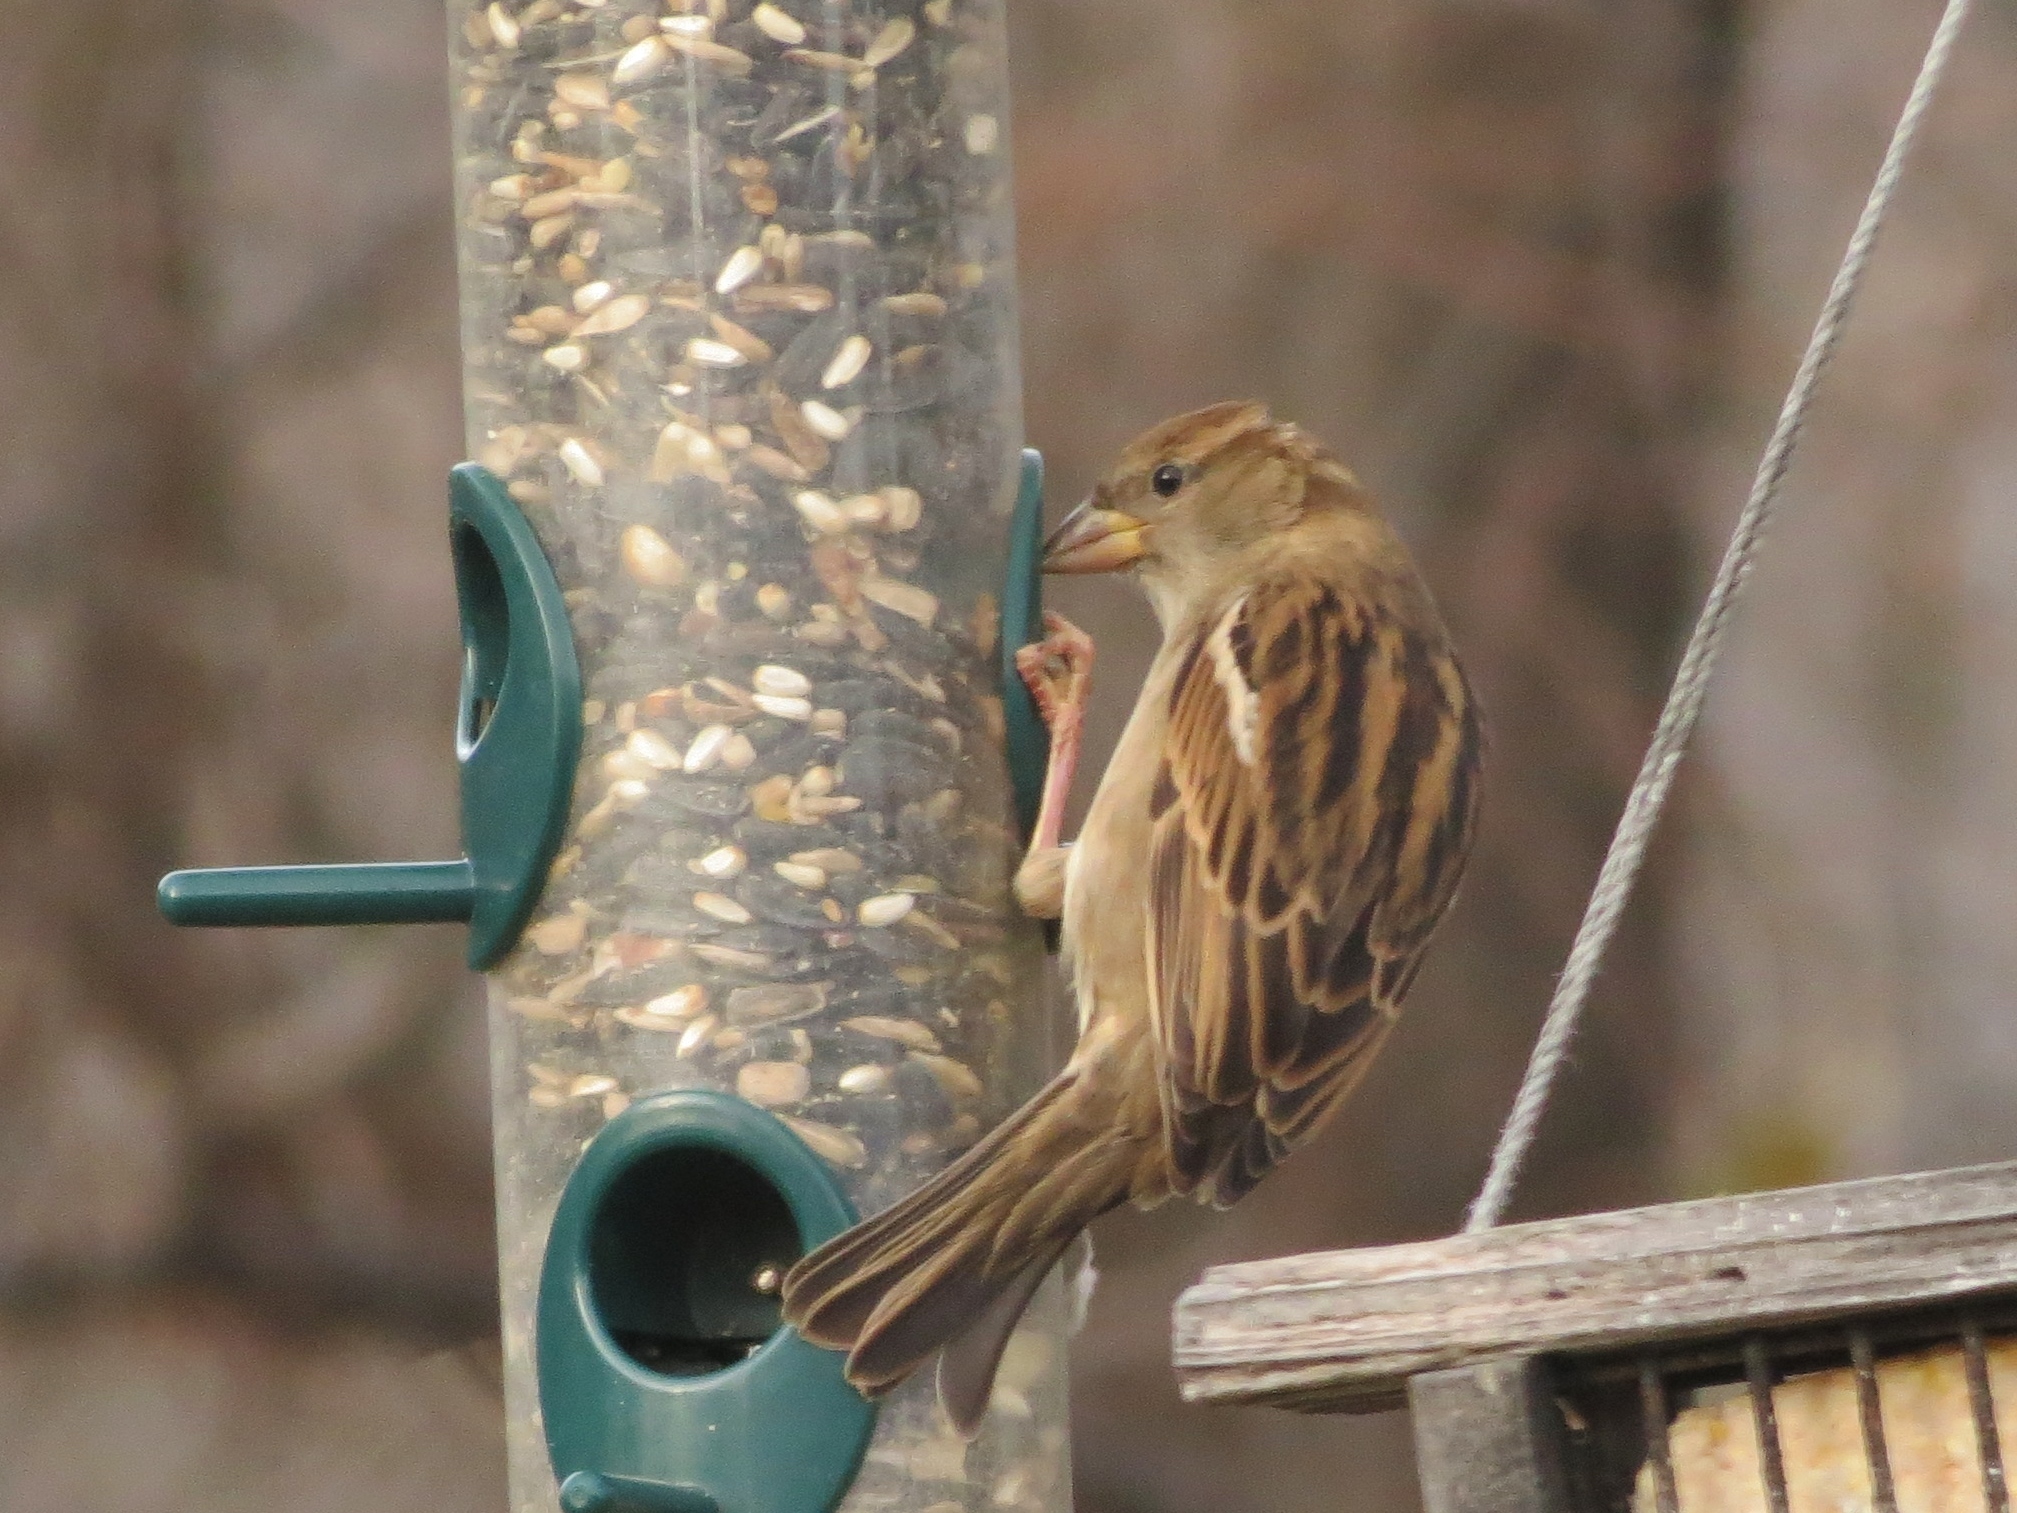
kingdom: Animalia
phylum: Chordata
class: Aves
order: Passeriformes
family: Passeridae
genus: Passer
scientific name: Passer domesticus
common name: House sparrow
